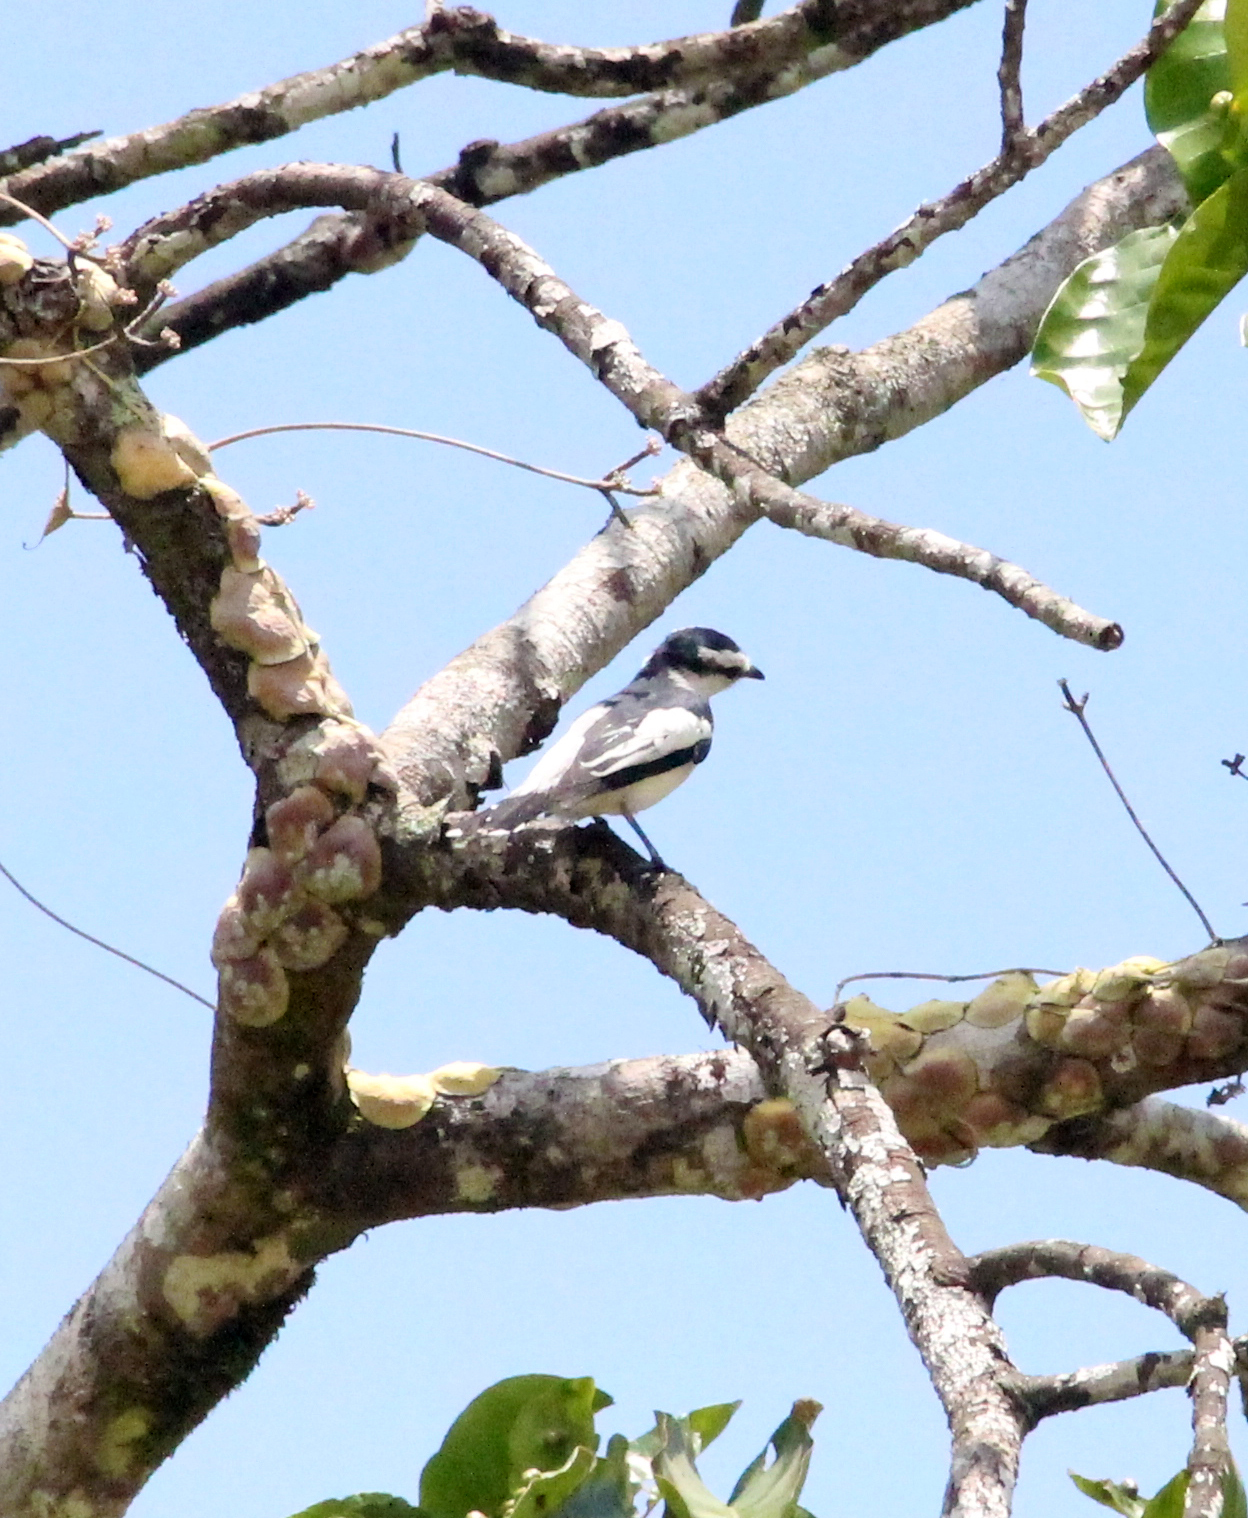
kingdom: Animalia
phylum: Chordata
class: Aves
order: Passeriformes
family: Campephagidae
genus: Lalage
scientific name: Lalage nigra
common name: Pied triller
